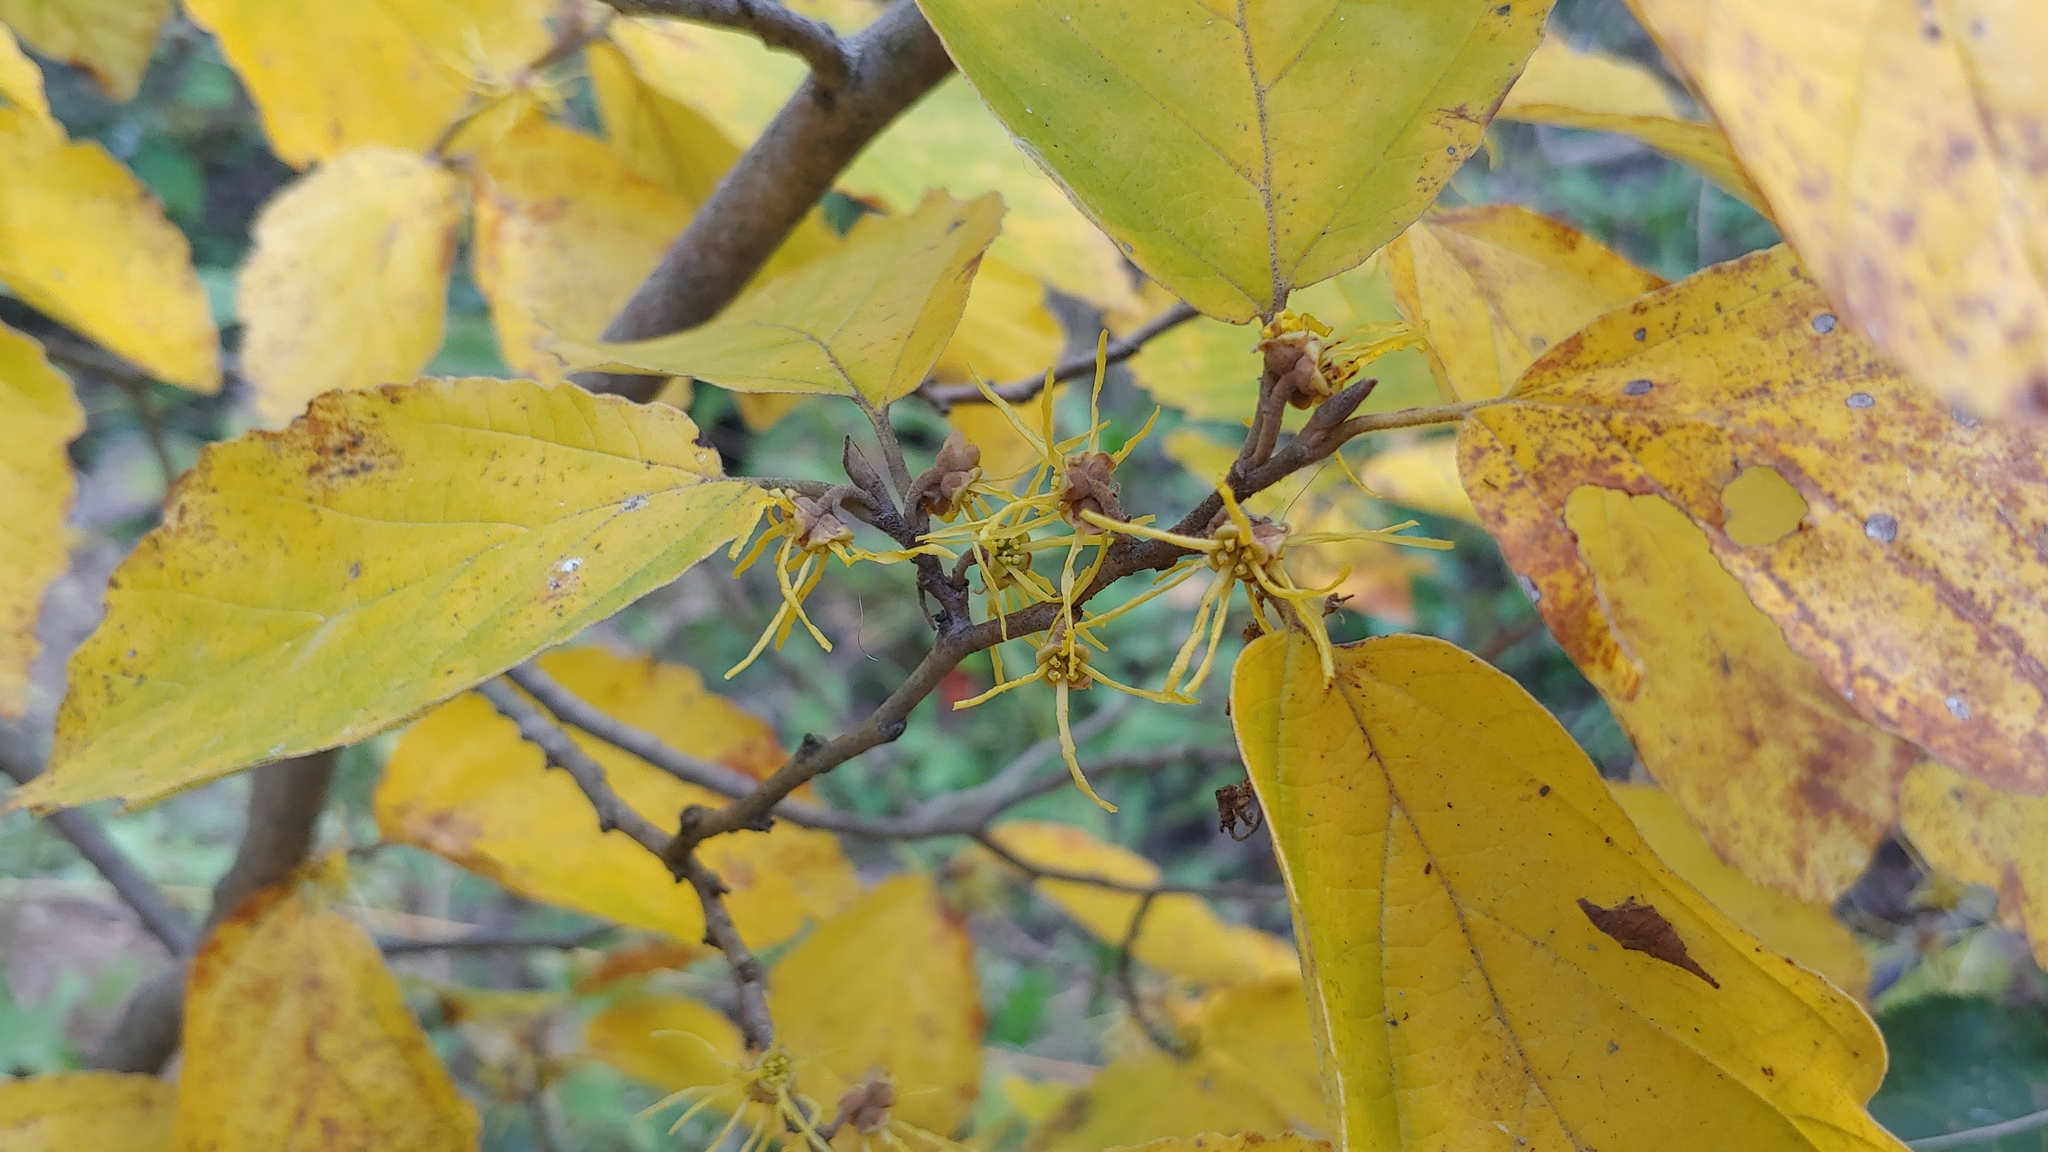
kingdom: Plantae
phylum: Tracheophyta
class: Magnoliopsida
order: Saxifragales
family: Hamamelidaceae
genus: Hamamelis
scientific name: Hamamelis virginiana
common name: Witch-hazel
